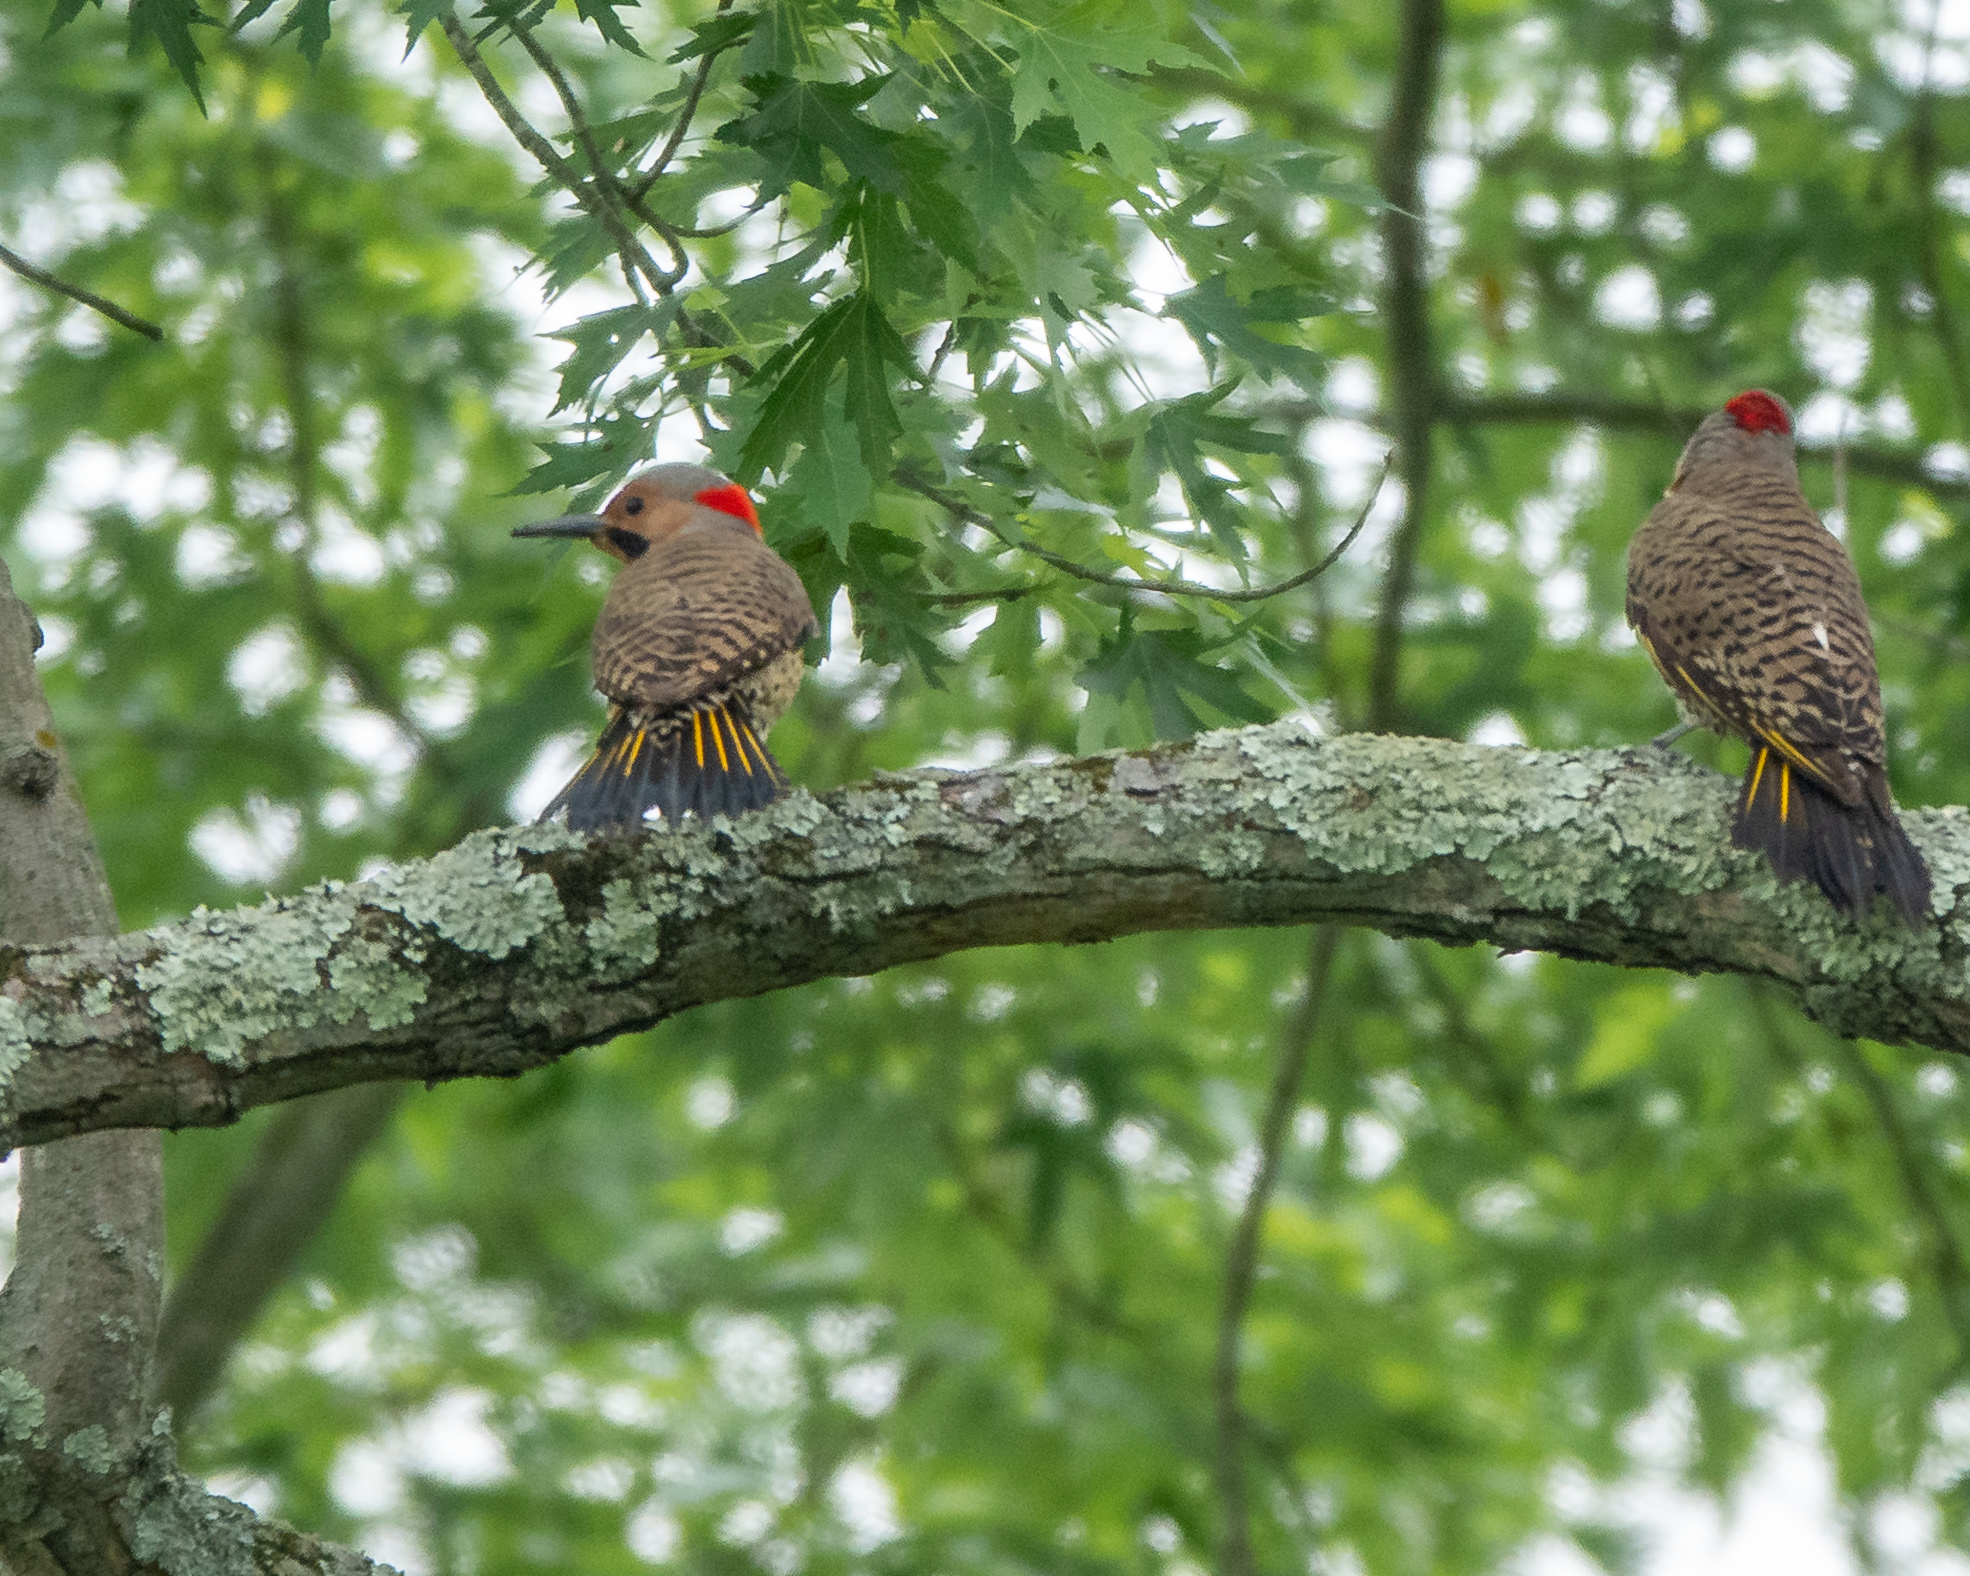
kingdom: Animalia
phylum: Chordata
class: Aves
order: Piciformes
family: Picidae
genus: Colaptes
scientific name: Colaptes auratus
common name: Northern flicker
